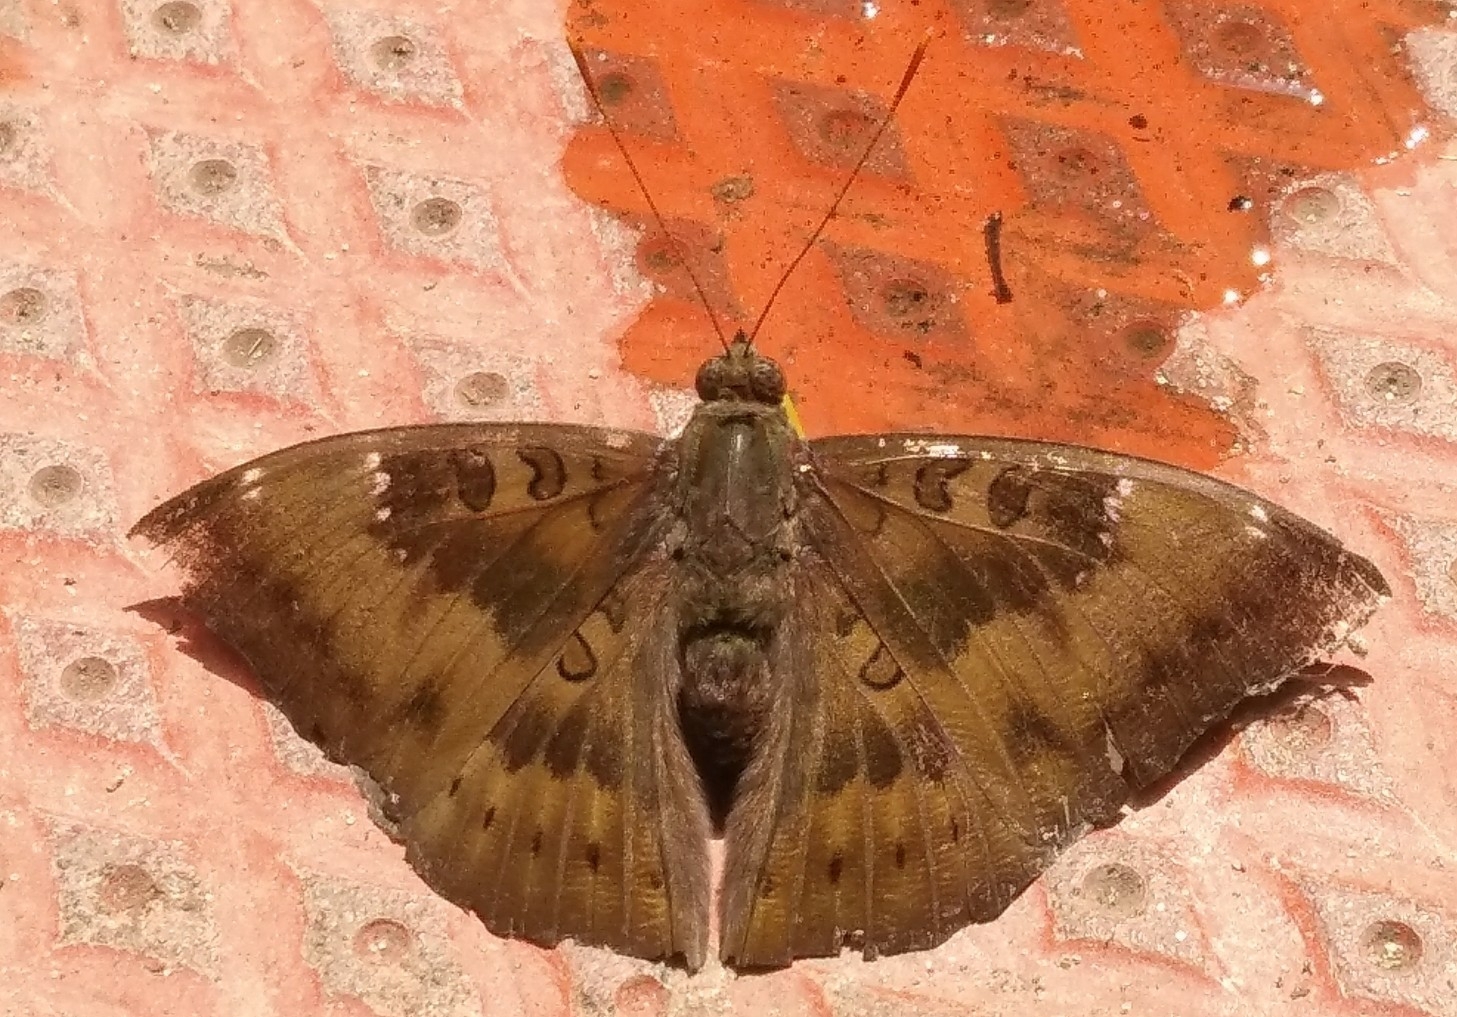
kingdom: Animalia
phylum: Arthropoda
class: Insecta
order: Lepidoptera
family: Nymphalidae
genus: Euthalia
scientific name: Euthalia aconthea
